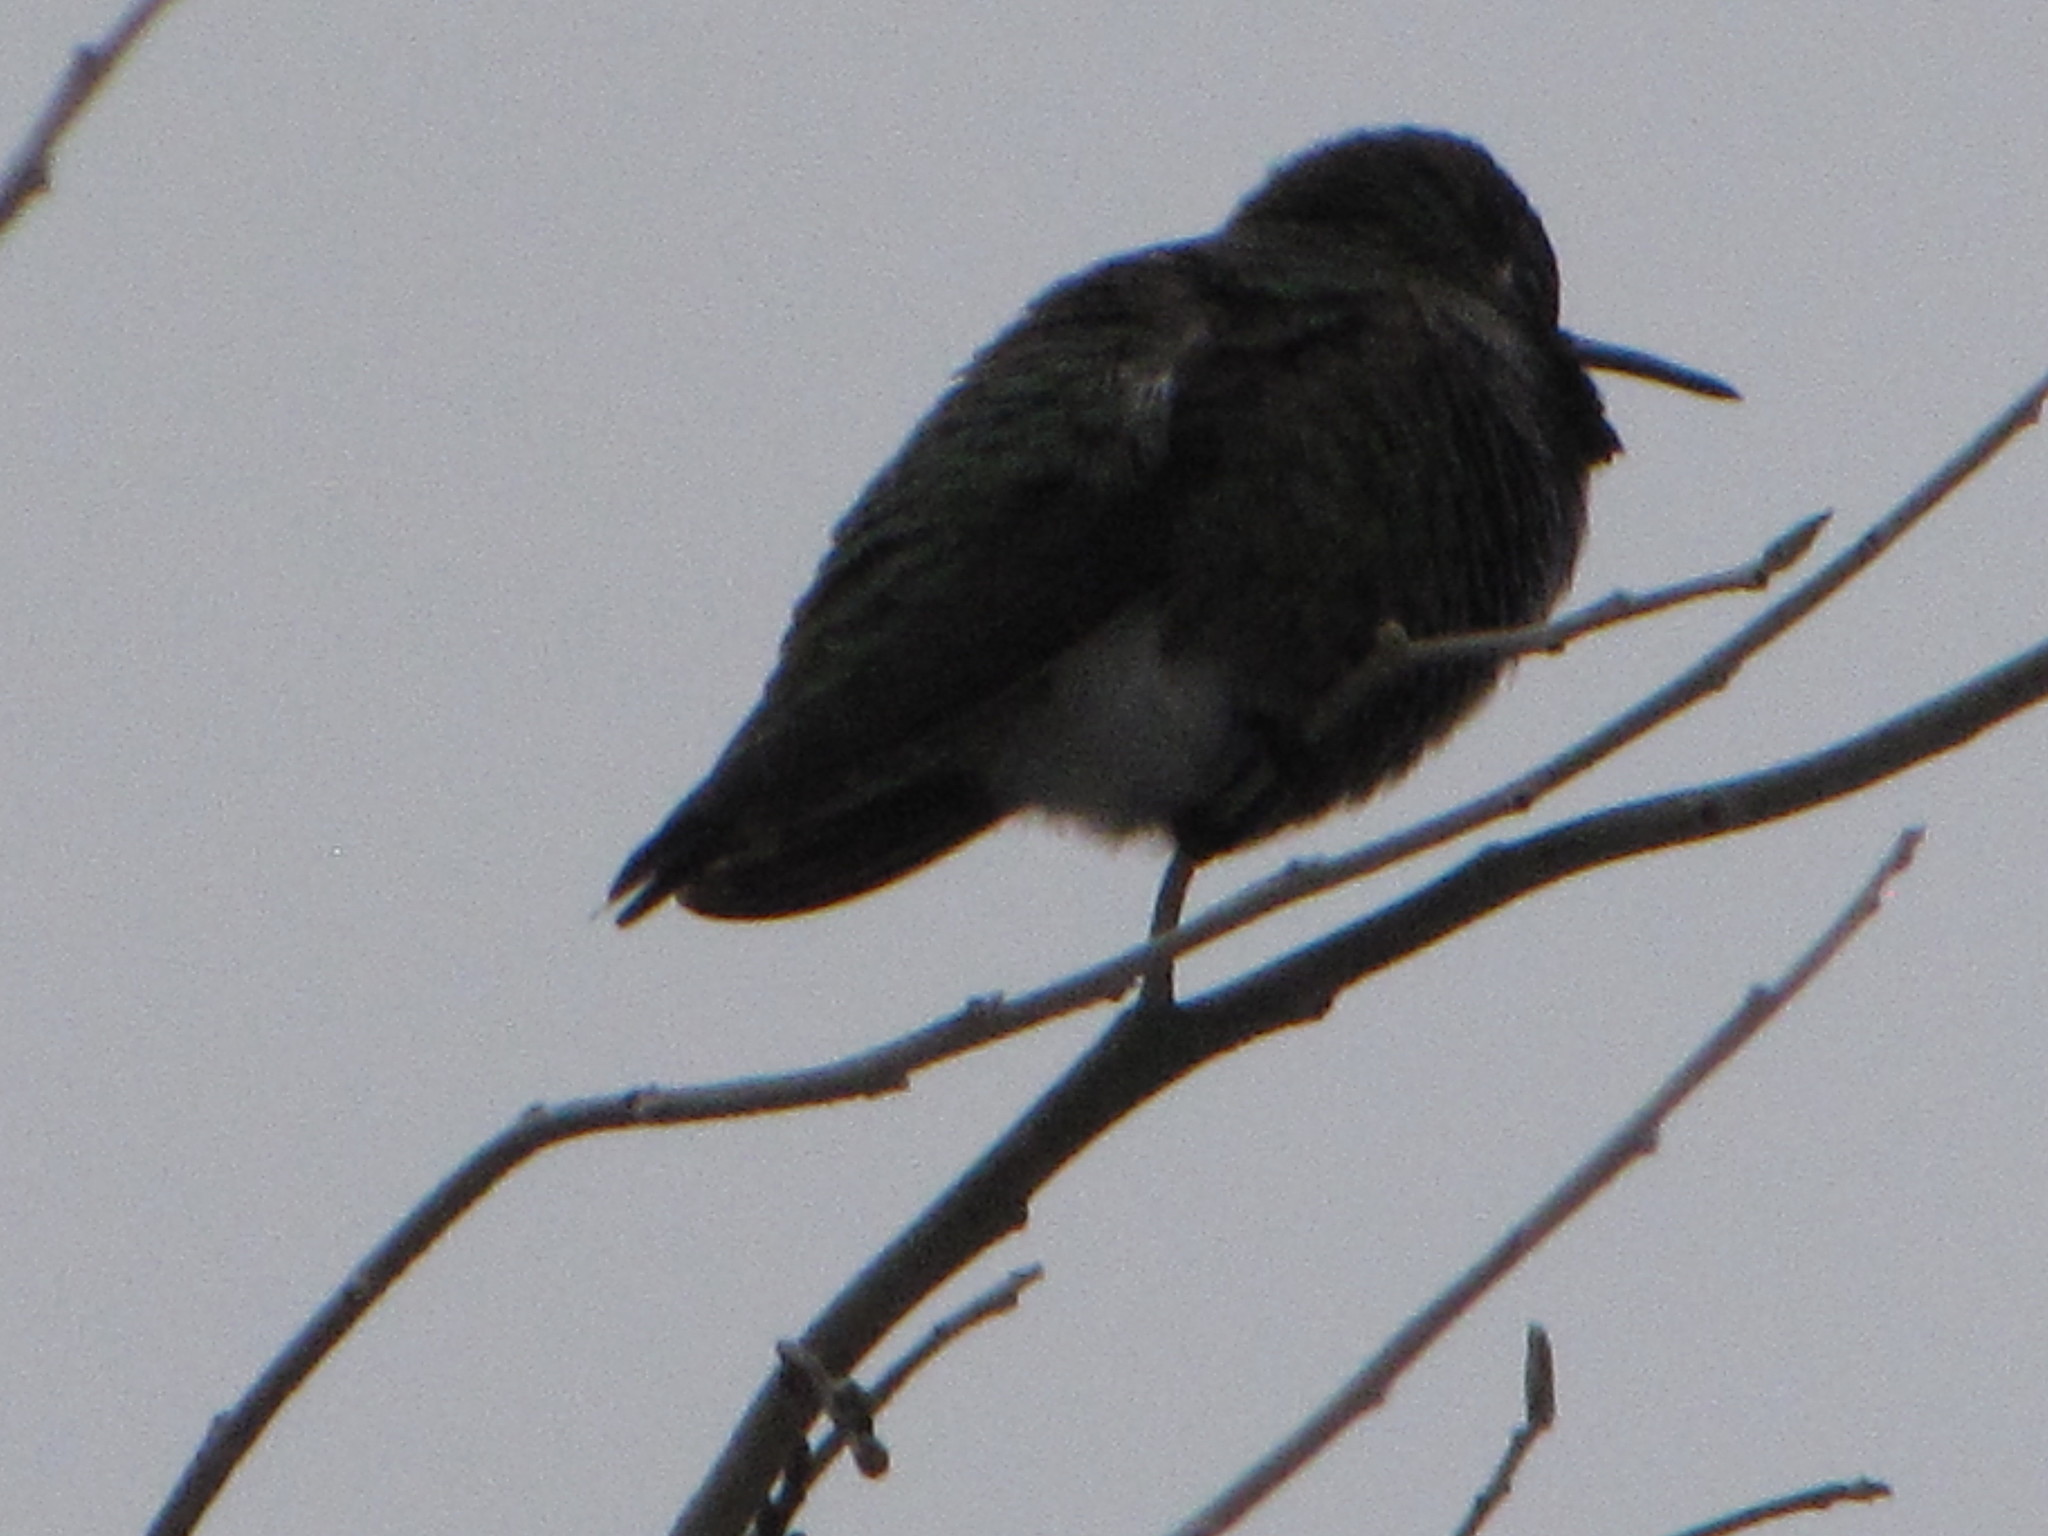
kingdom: Animalia
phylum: Chordata
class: Aves
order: Apodiformes
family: Trochilidae
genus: Calypte
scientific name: Calypte anna
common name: Anna's hummingbird
